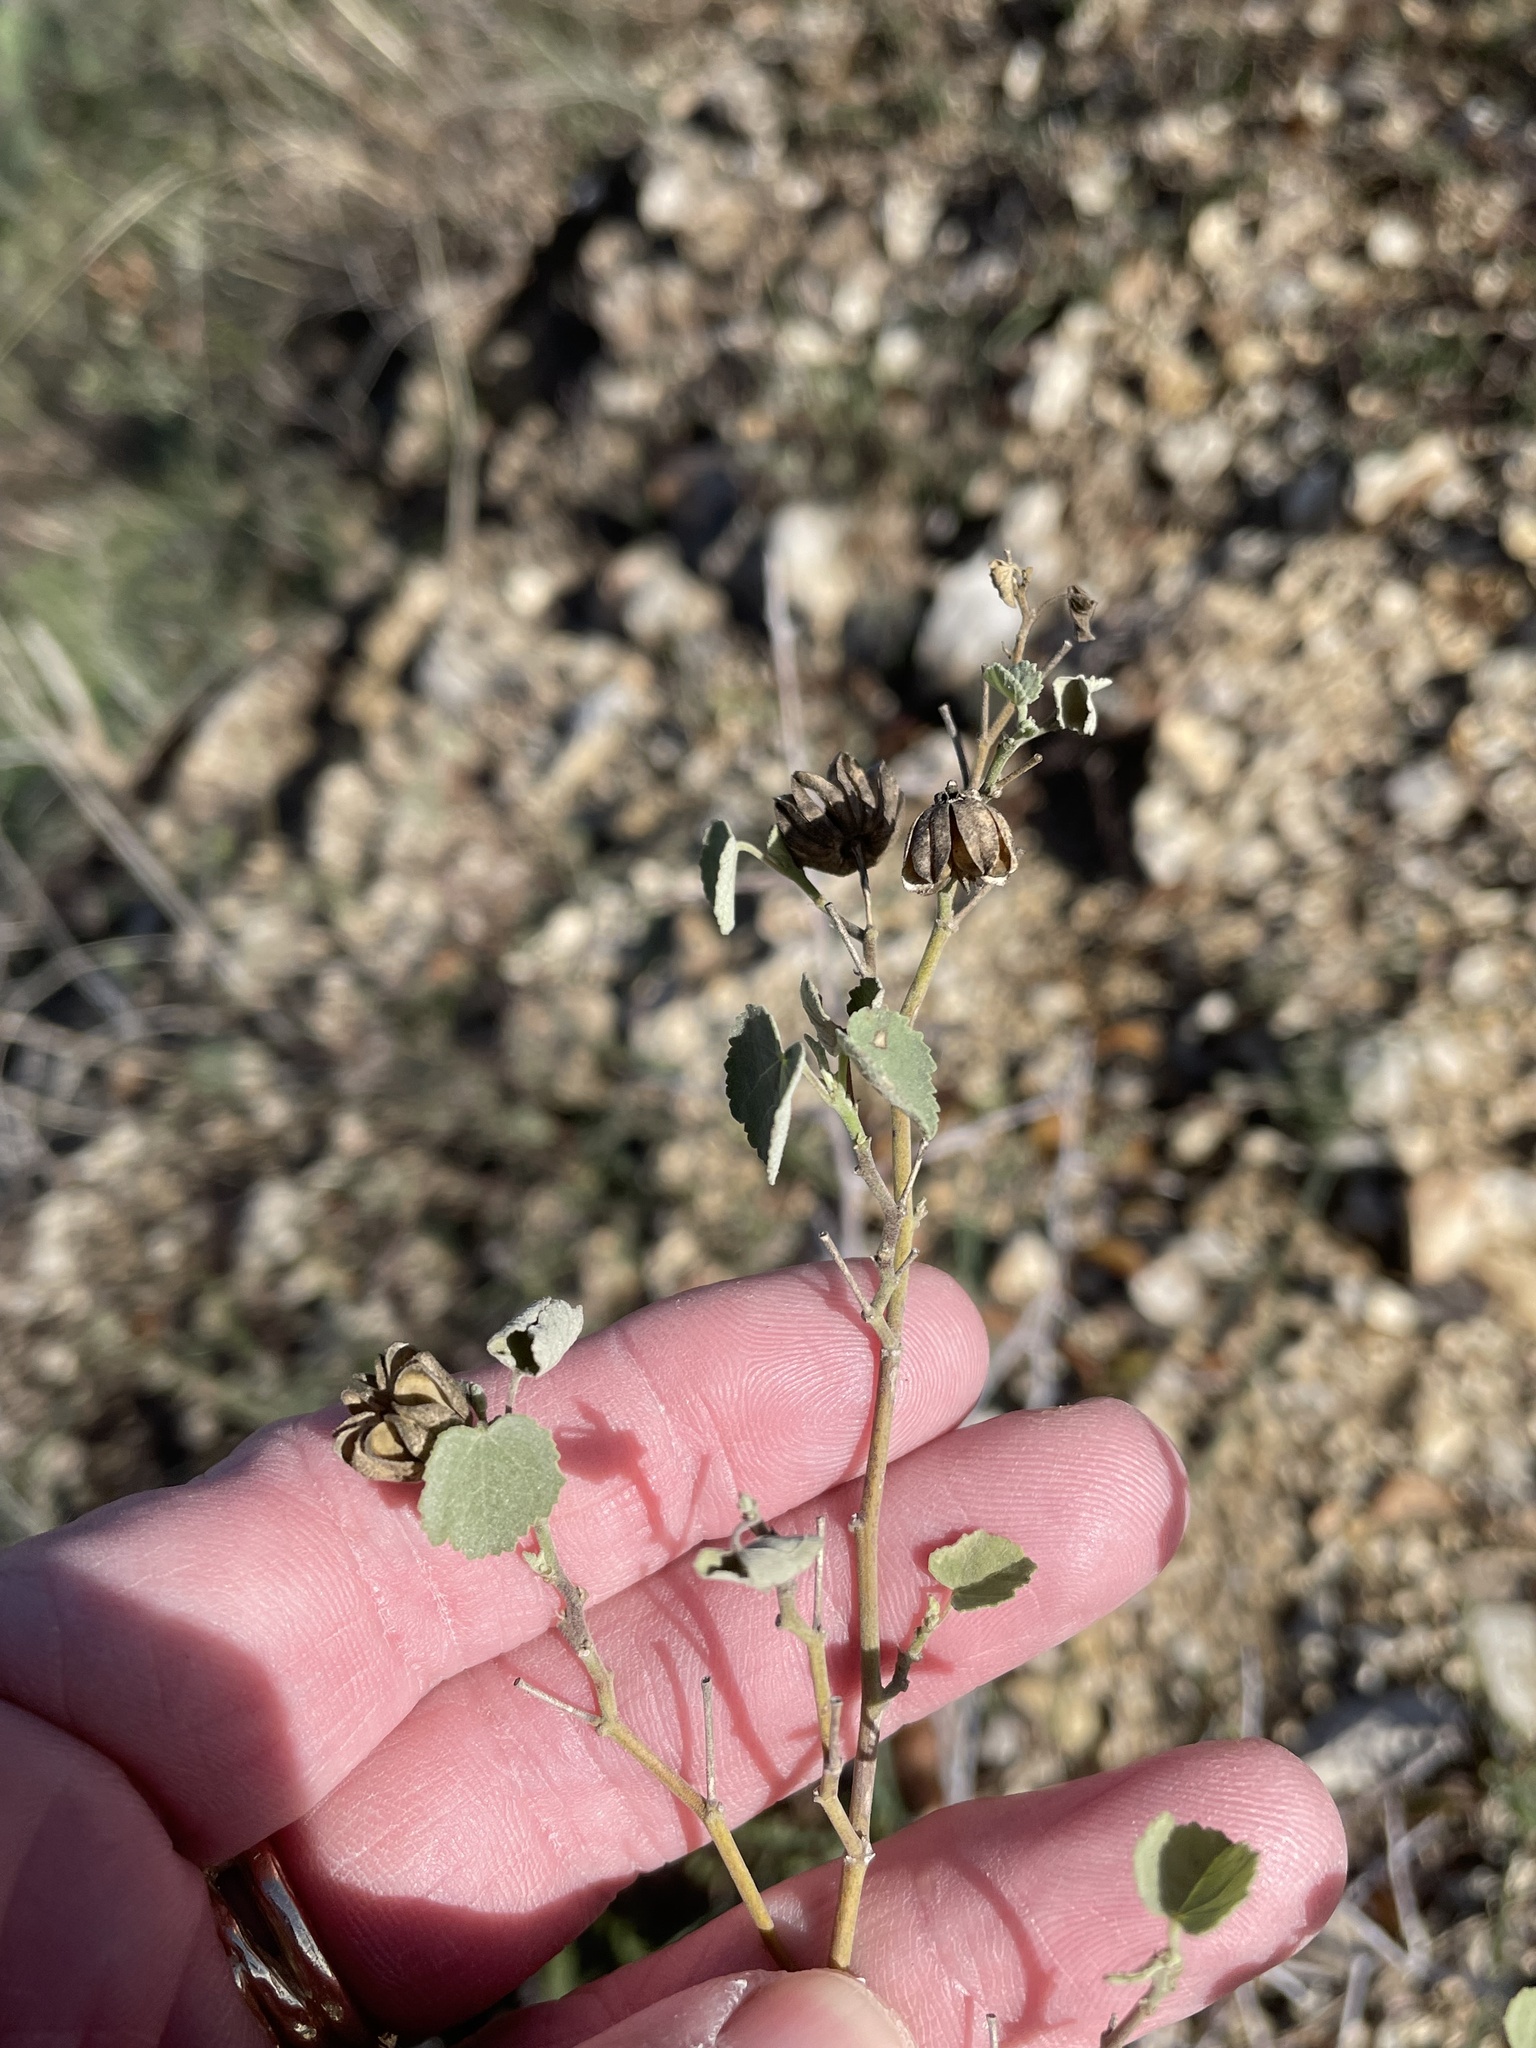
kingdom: Plantae
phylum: Tracheophyta
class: Magnoliopsida
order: Malvales
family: Malvaceae
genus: Abutilon
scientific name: Abutilon fruticosum
